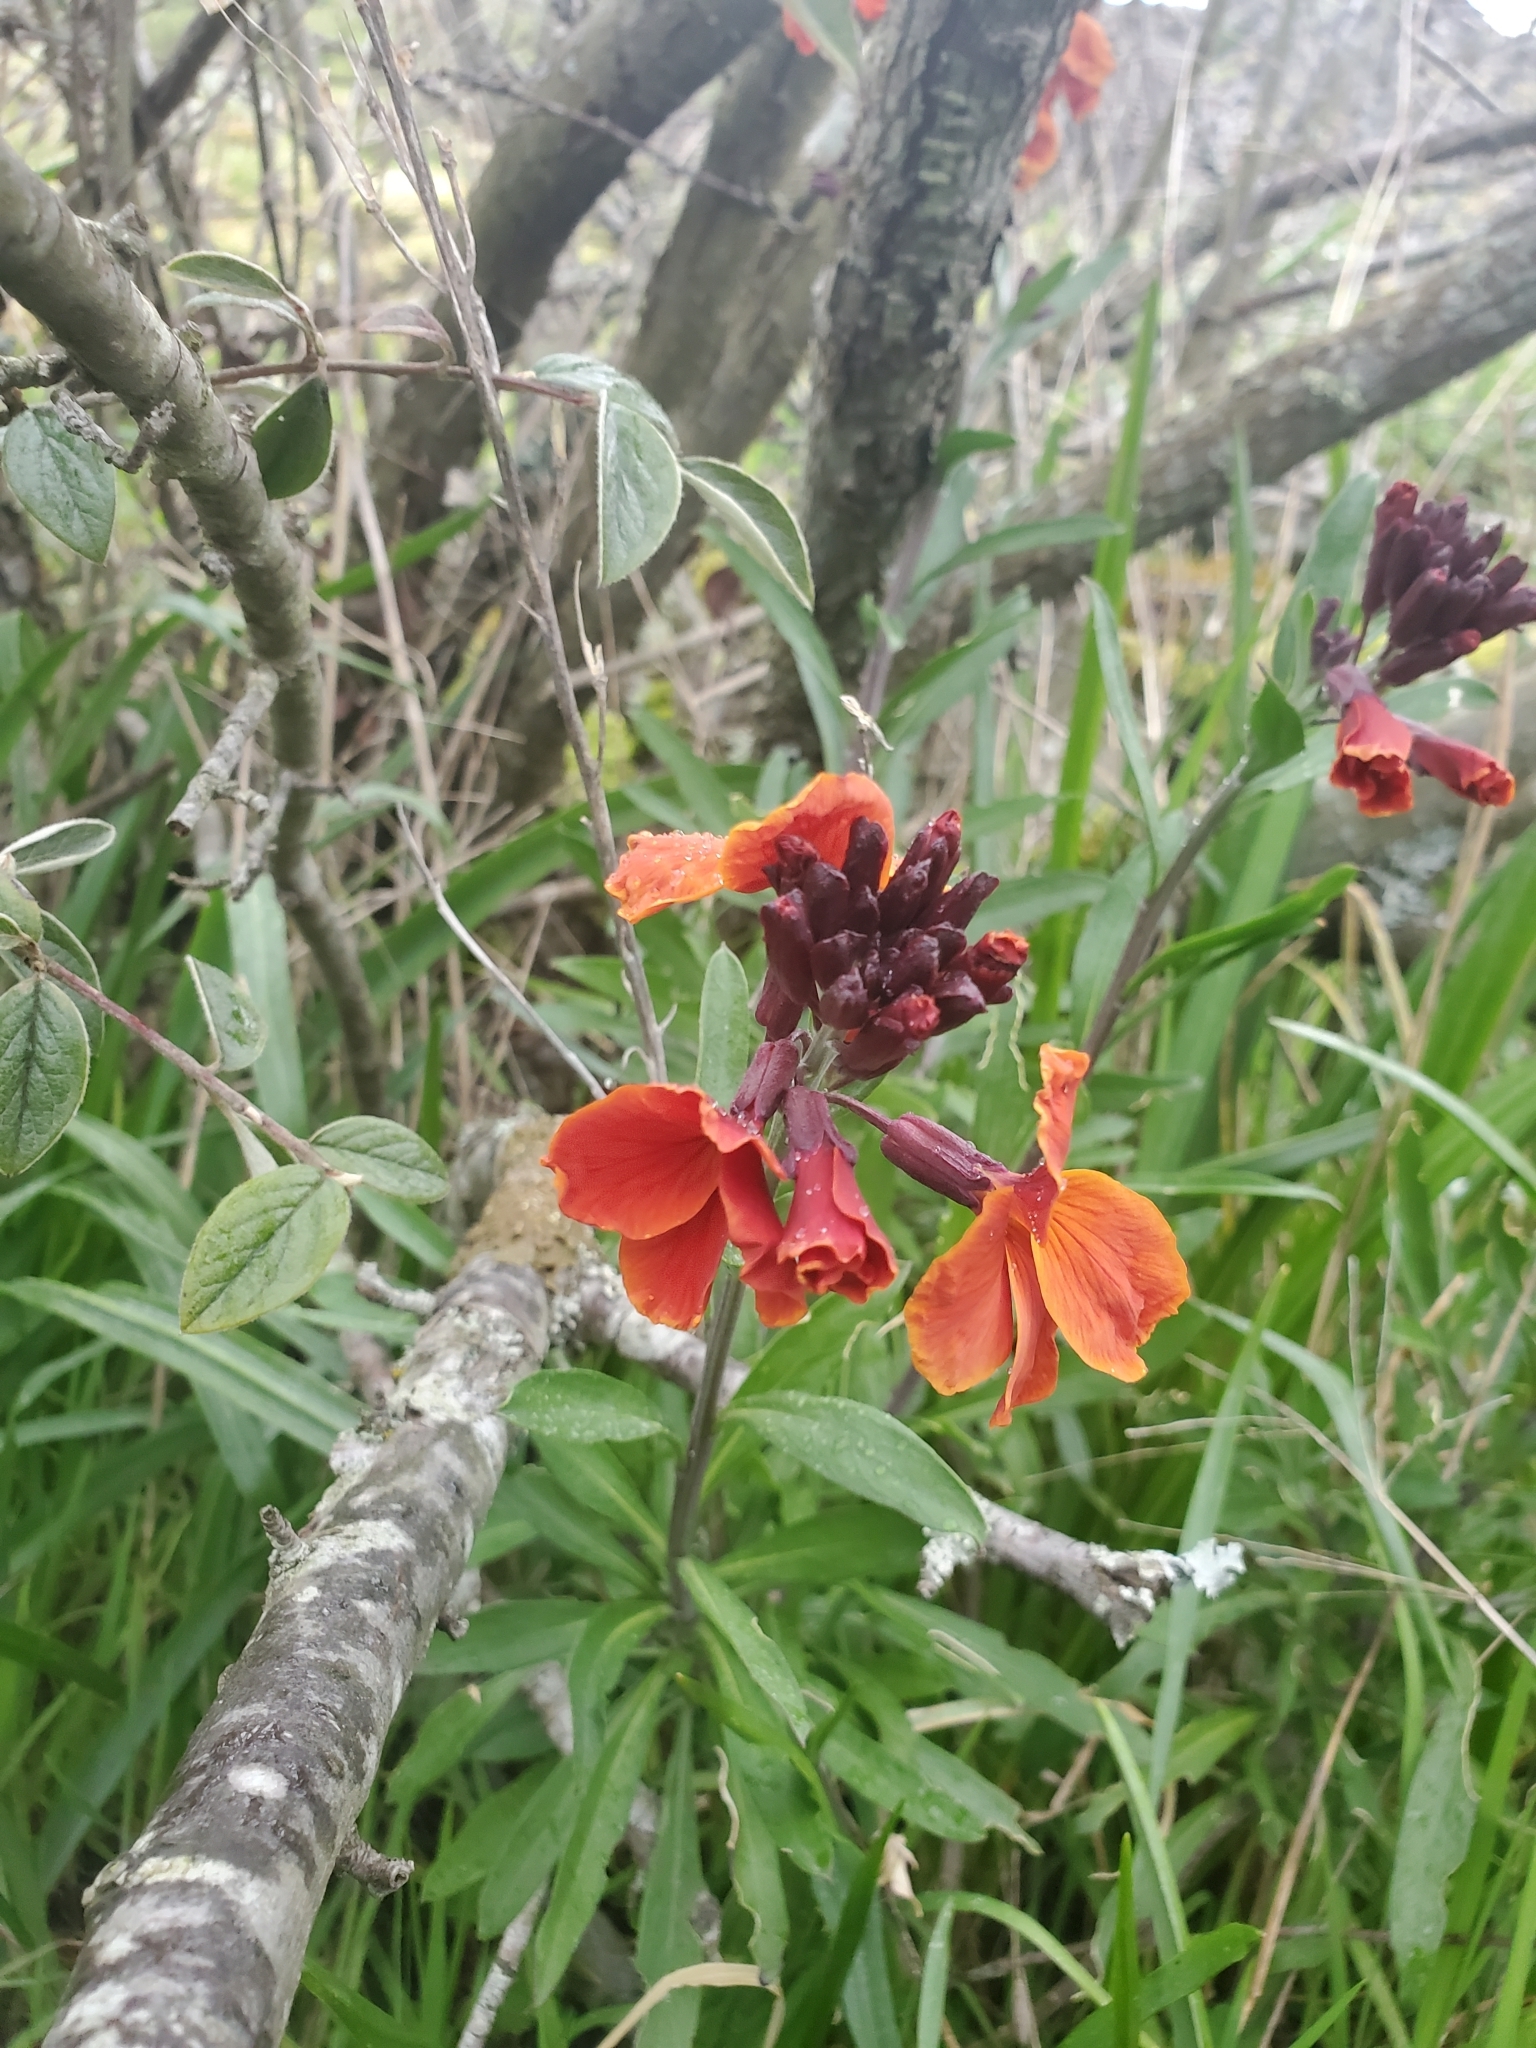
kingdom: Plantae
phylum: Tracheophyta
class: Magnoliopsida
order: Brassicales
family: Brassicaceae
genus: Erysimum
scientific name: Erysimum cheiri
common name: Wallflower
